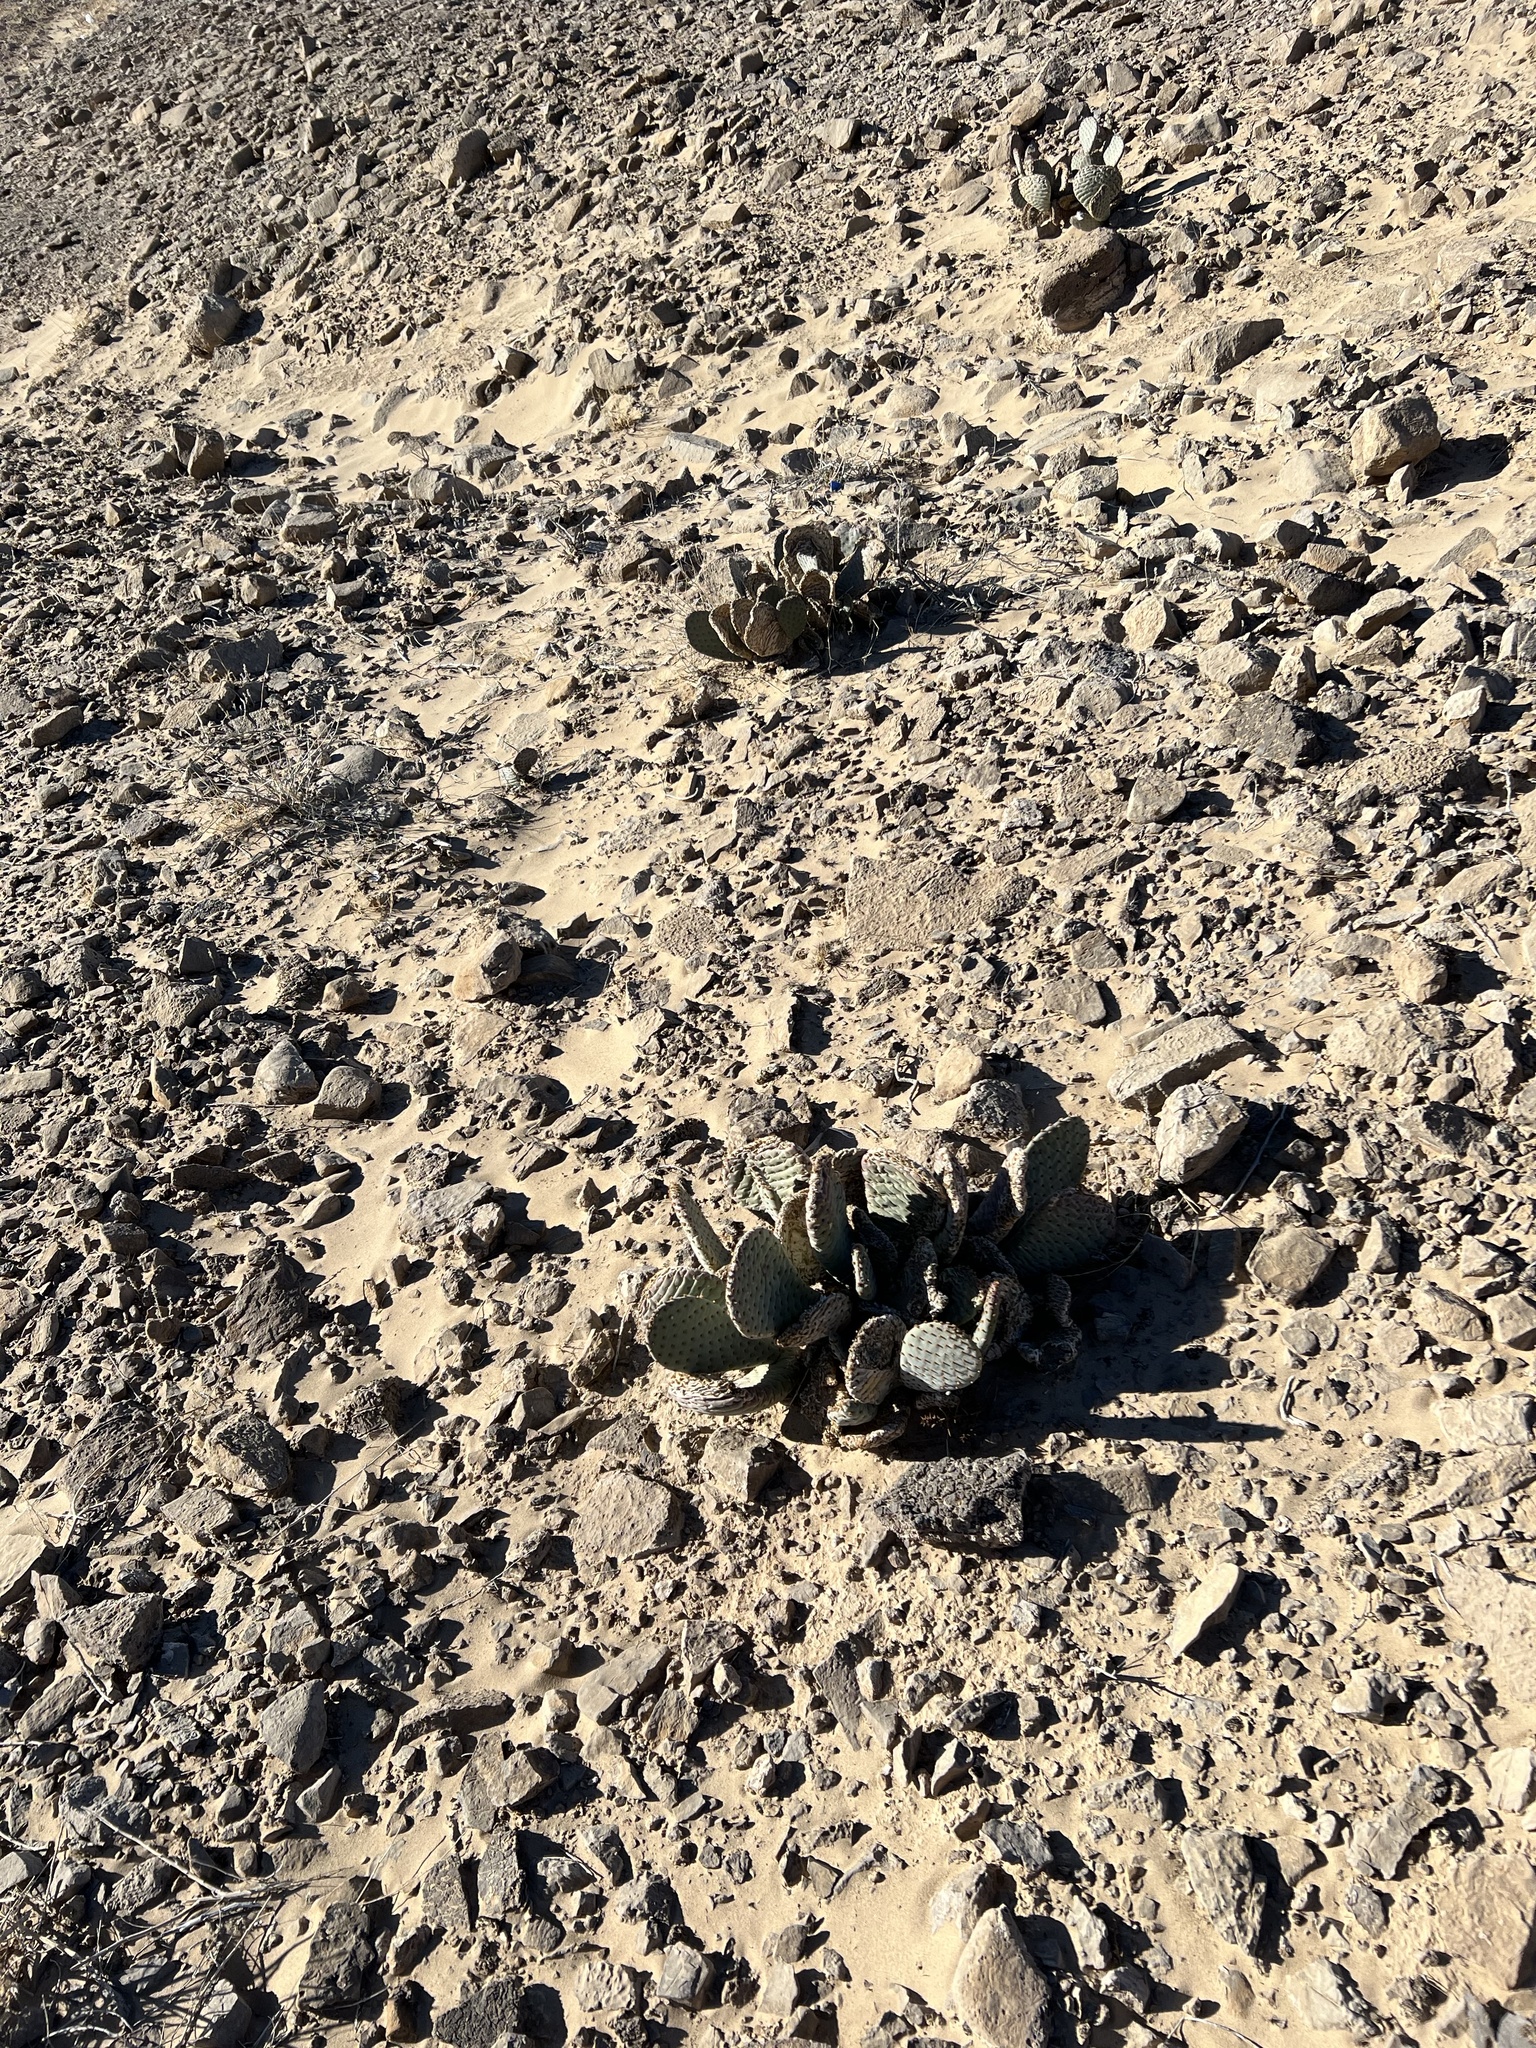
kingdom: Plantae
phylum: Tracheophyta
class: Magnoliopsida
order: Caryophyllales
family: Cactaceae
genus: Opuntia
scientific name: Opuntia basilaris
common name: Beavertail prickly-pear
